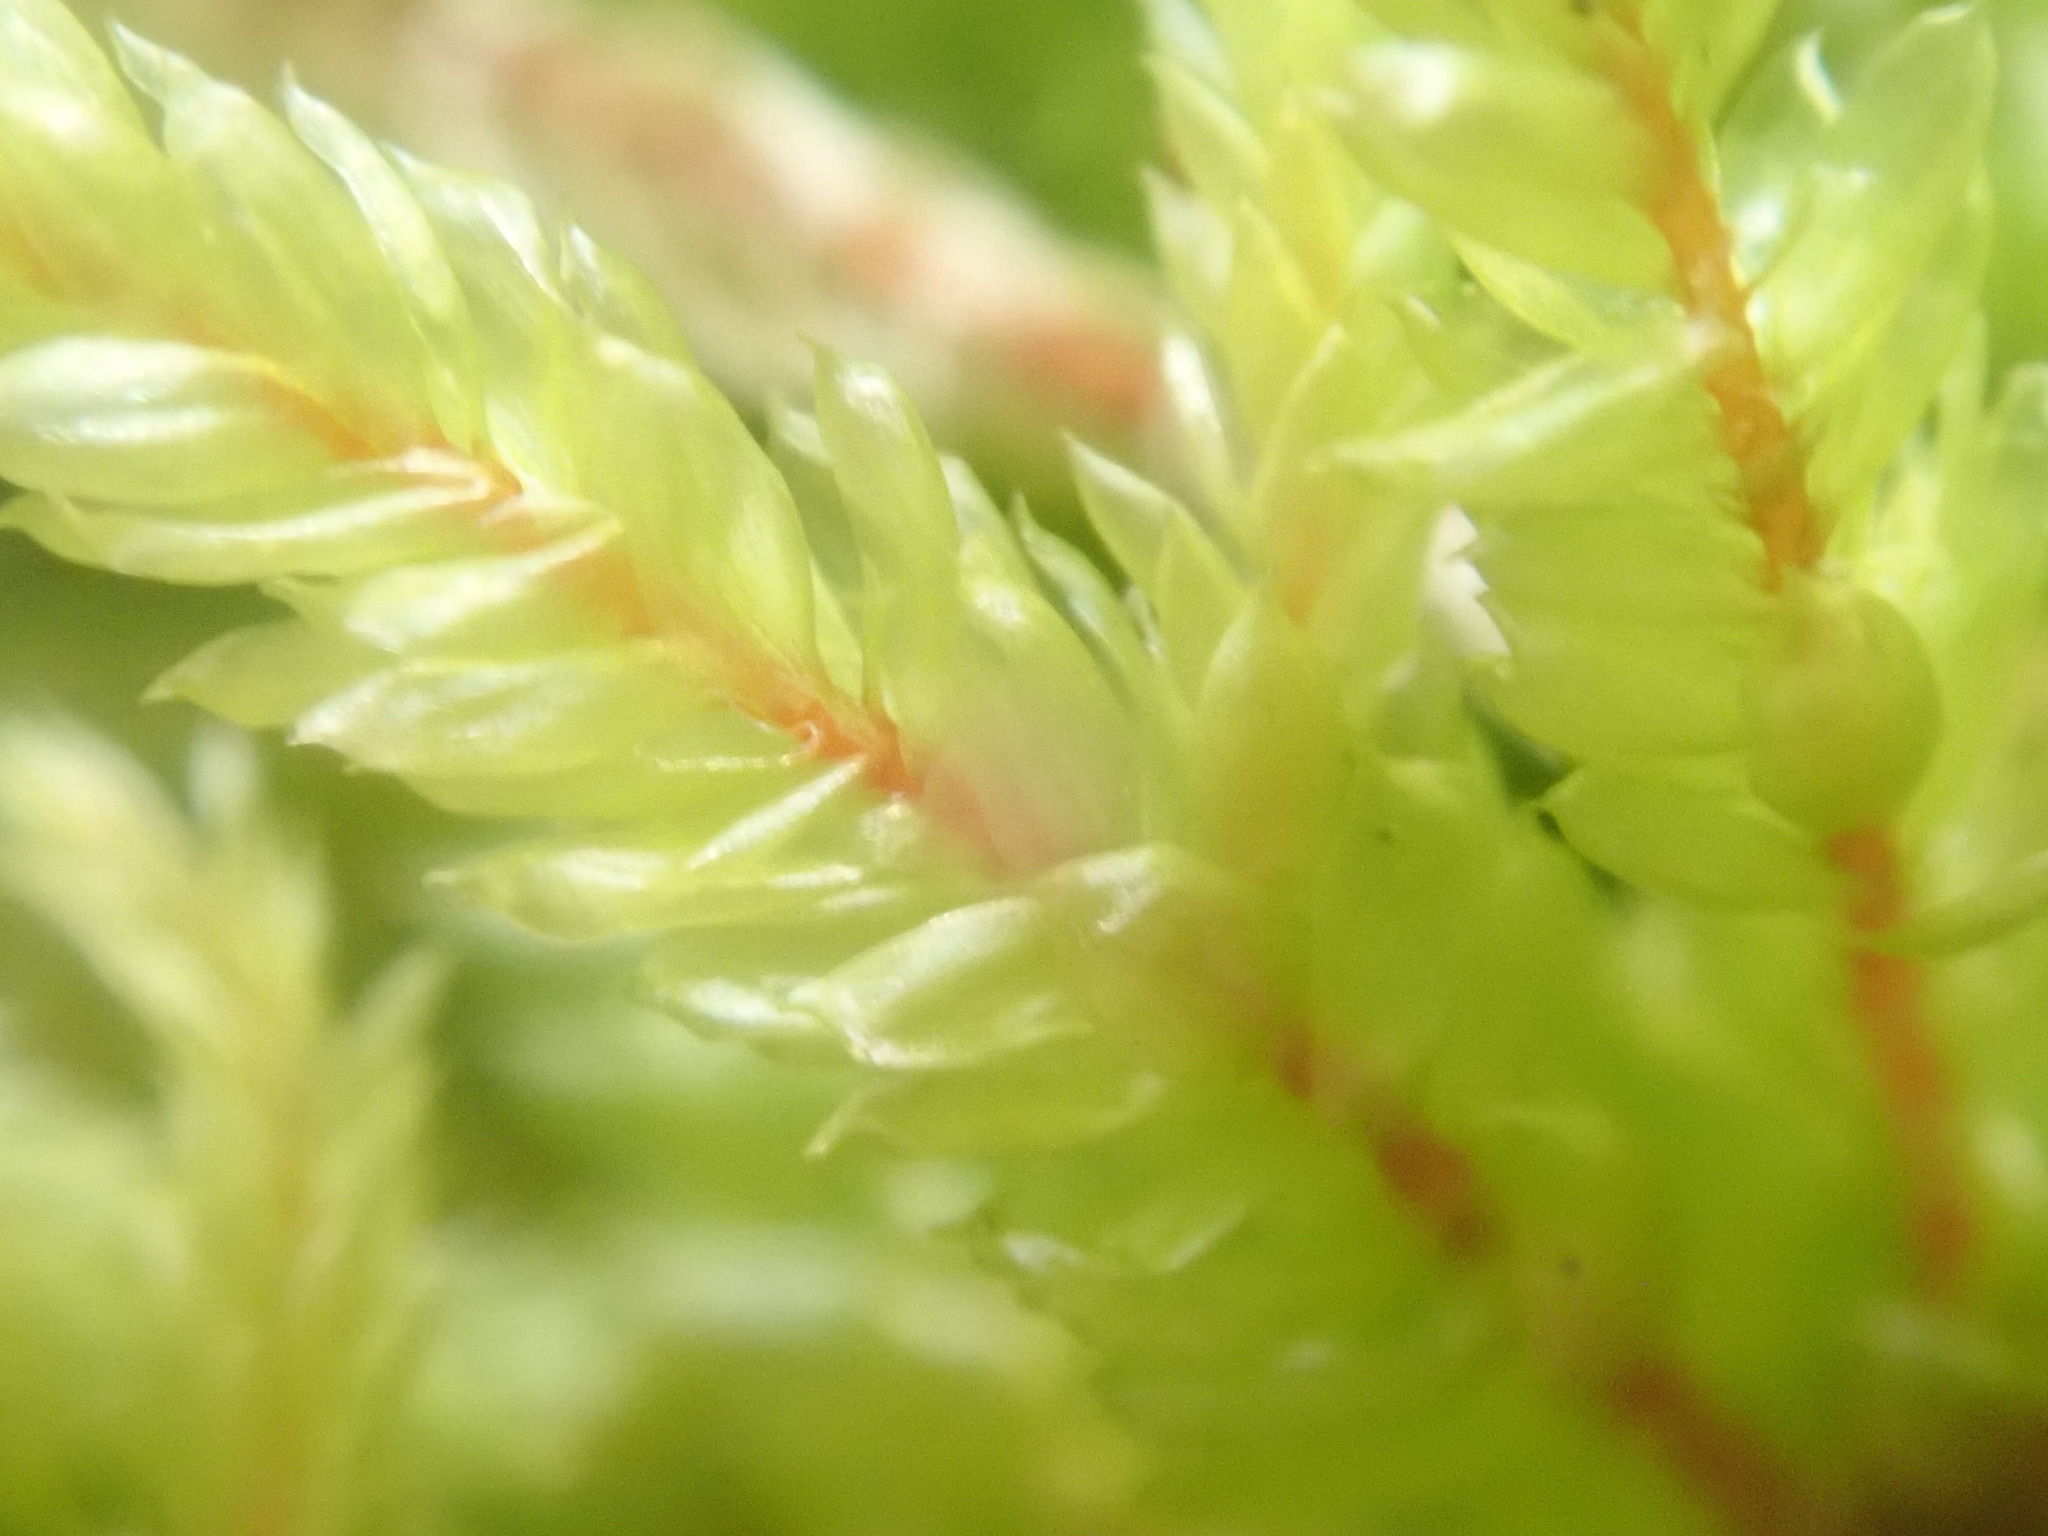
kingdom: Plantae
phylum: Bryophyta
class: Bryopsida
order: Hypnales
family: Hylocomiaceae
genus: Pleurozium
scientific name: Pleurozium schreberi
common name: Red-stemmed feather moss
